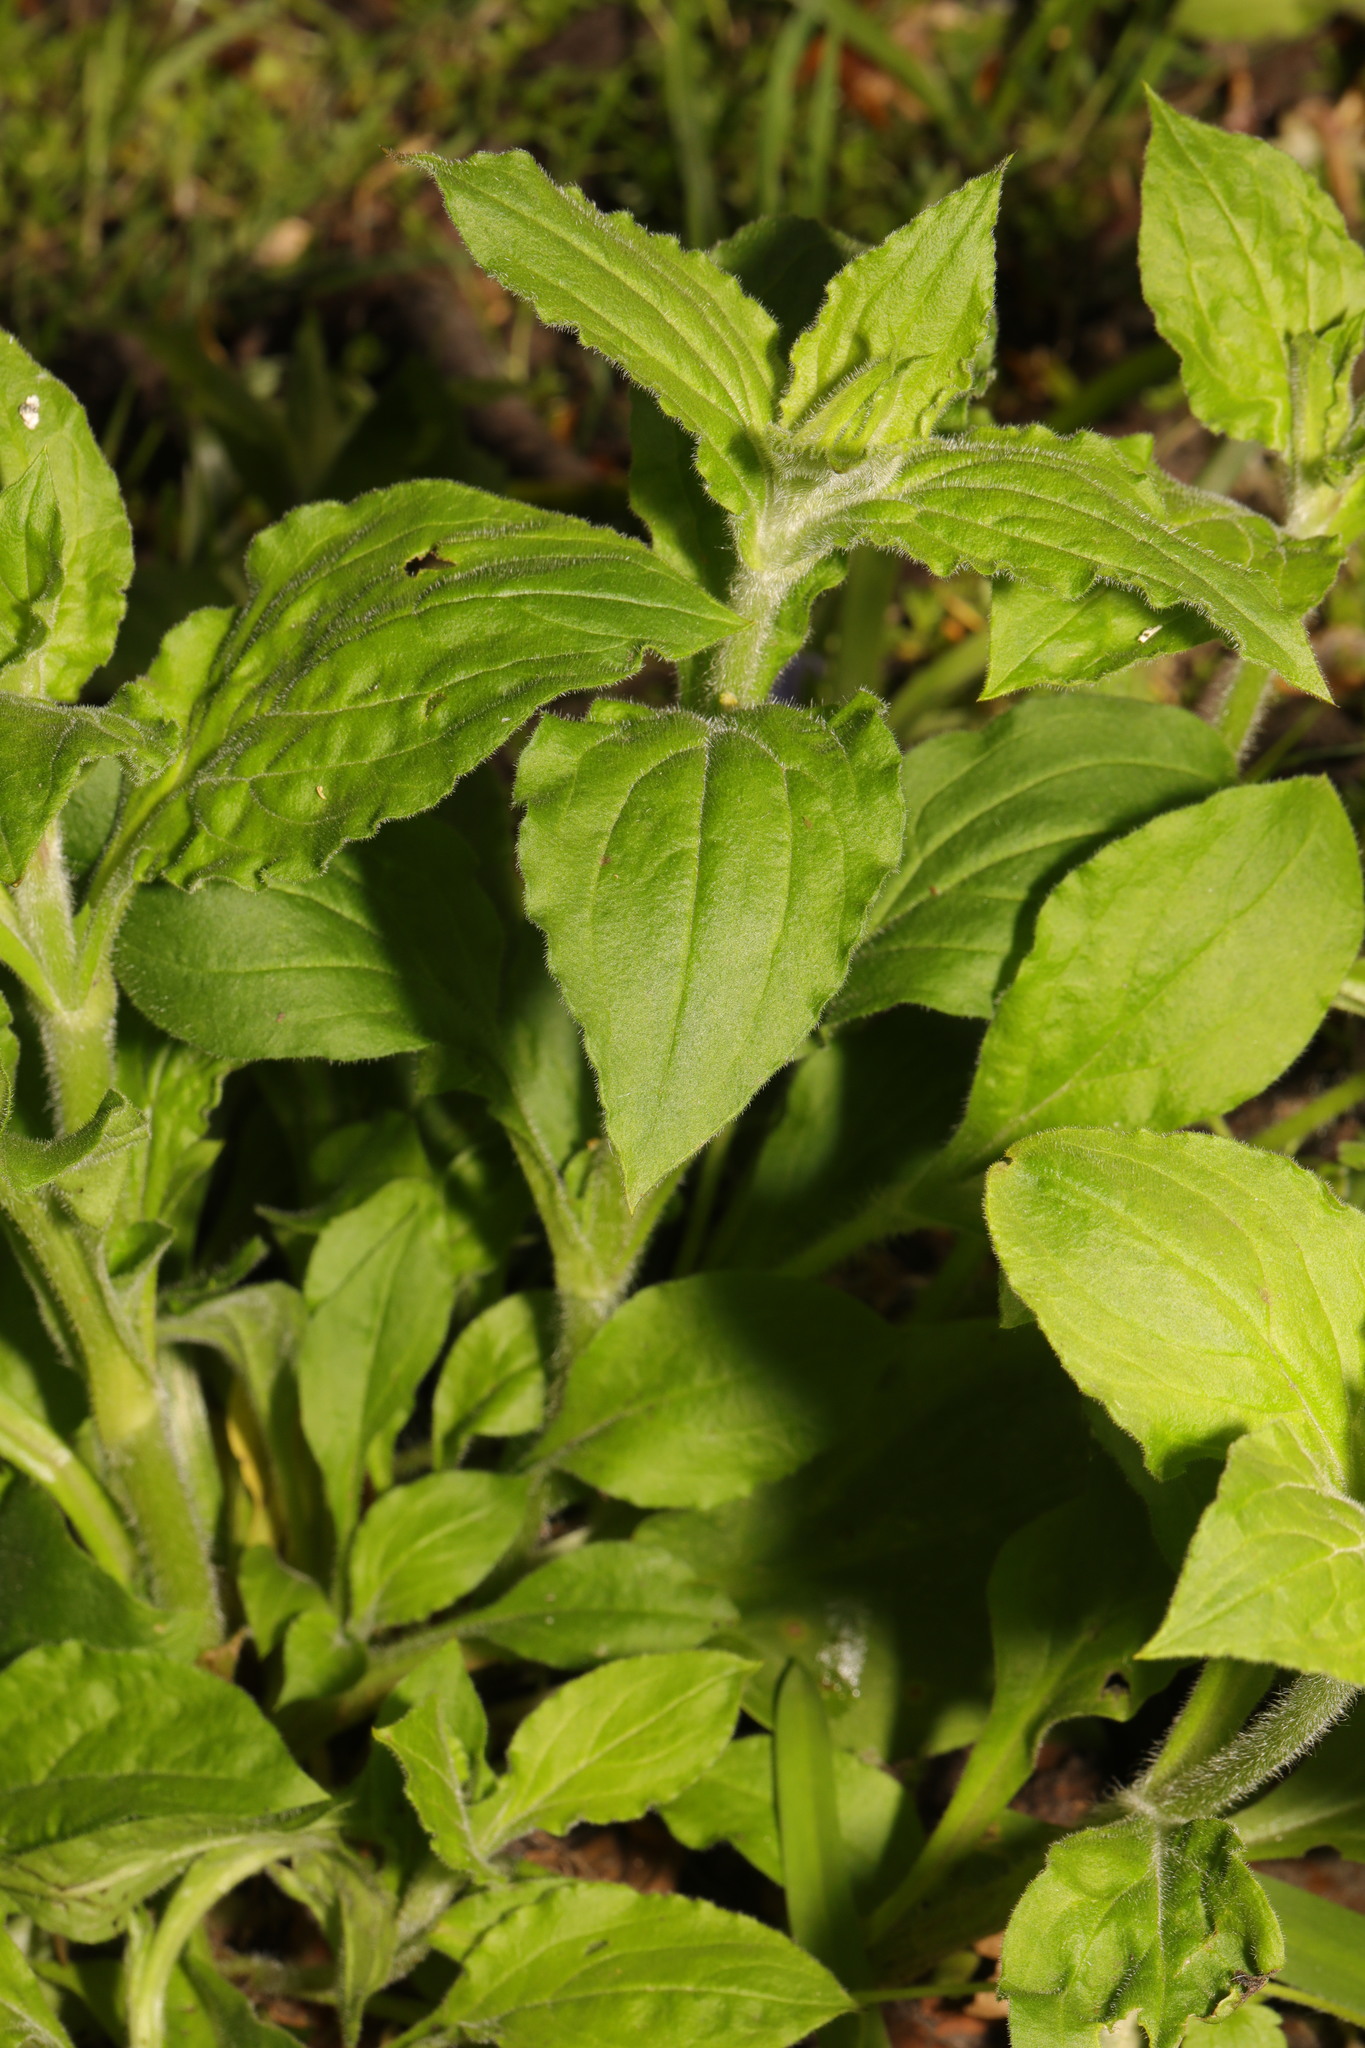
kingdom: Plantae
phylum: Tracheophyta
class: Magnoliopsida
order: Caryophyllales
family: Caryophyllaceae
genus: Silene
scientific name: Silene dioica
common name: Red campion
